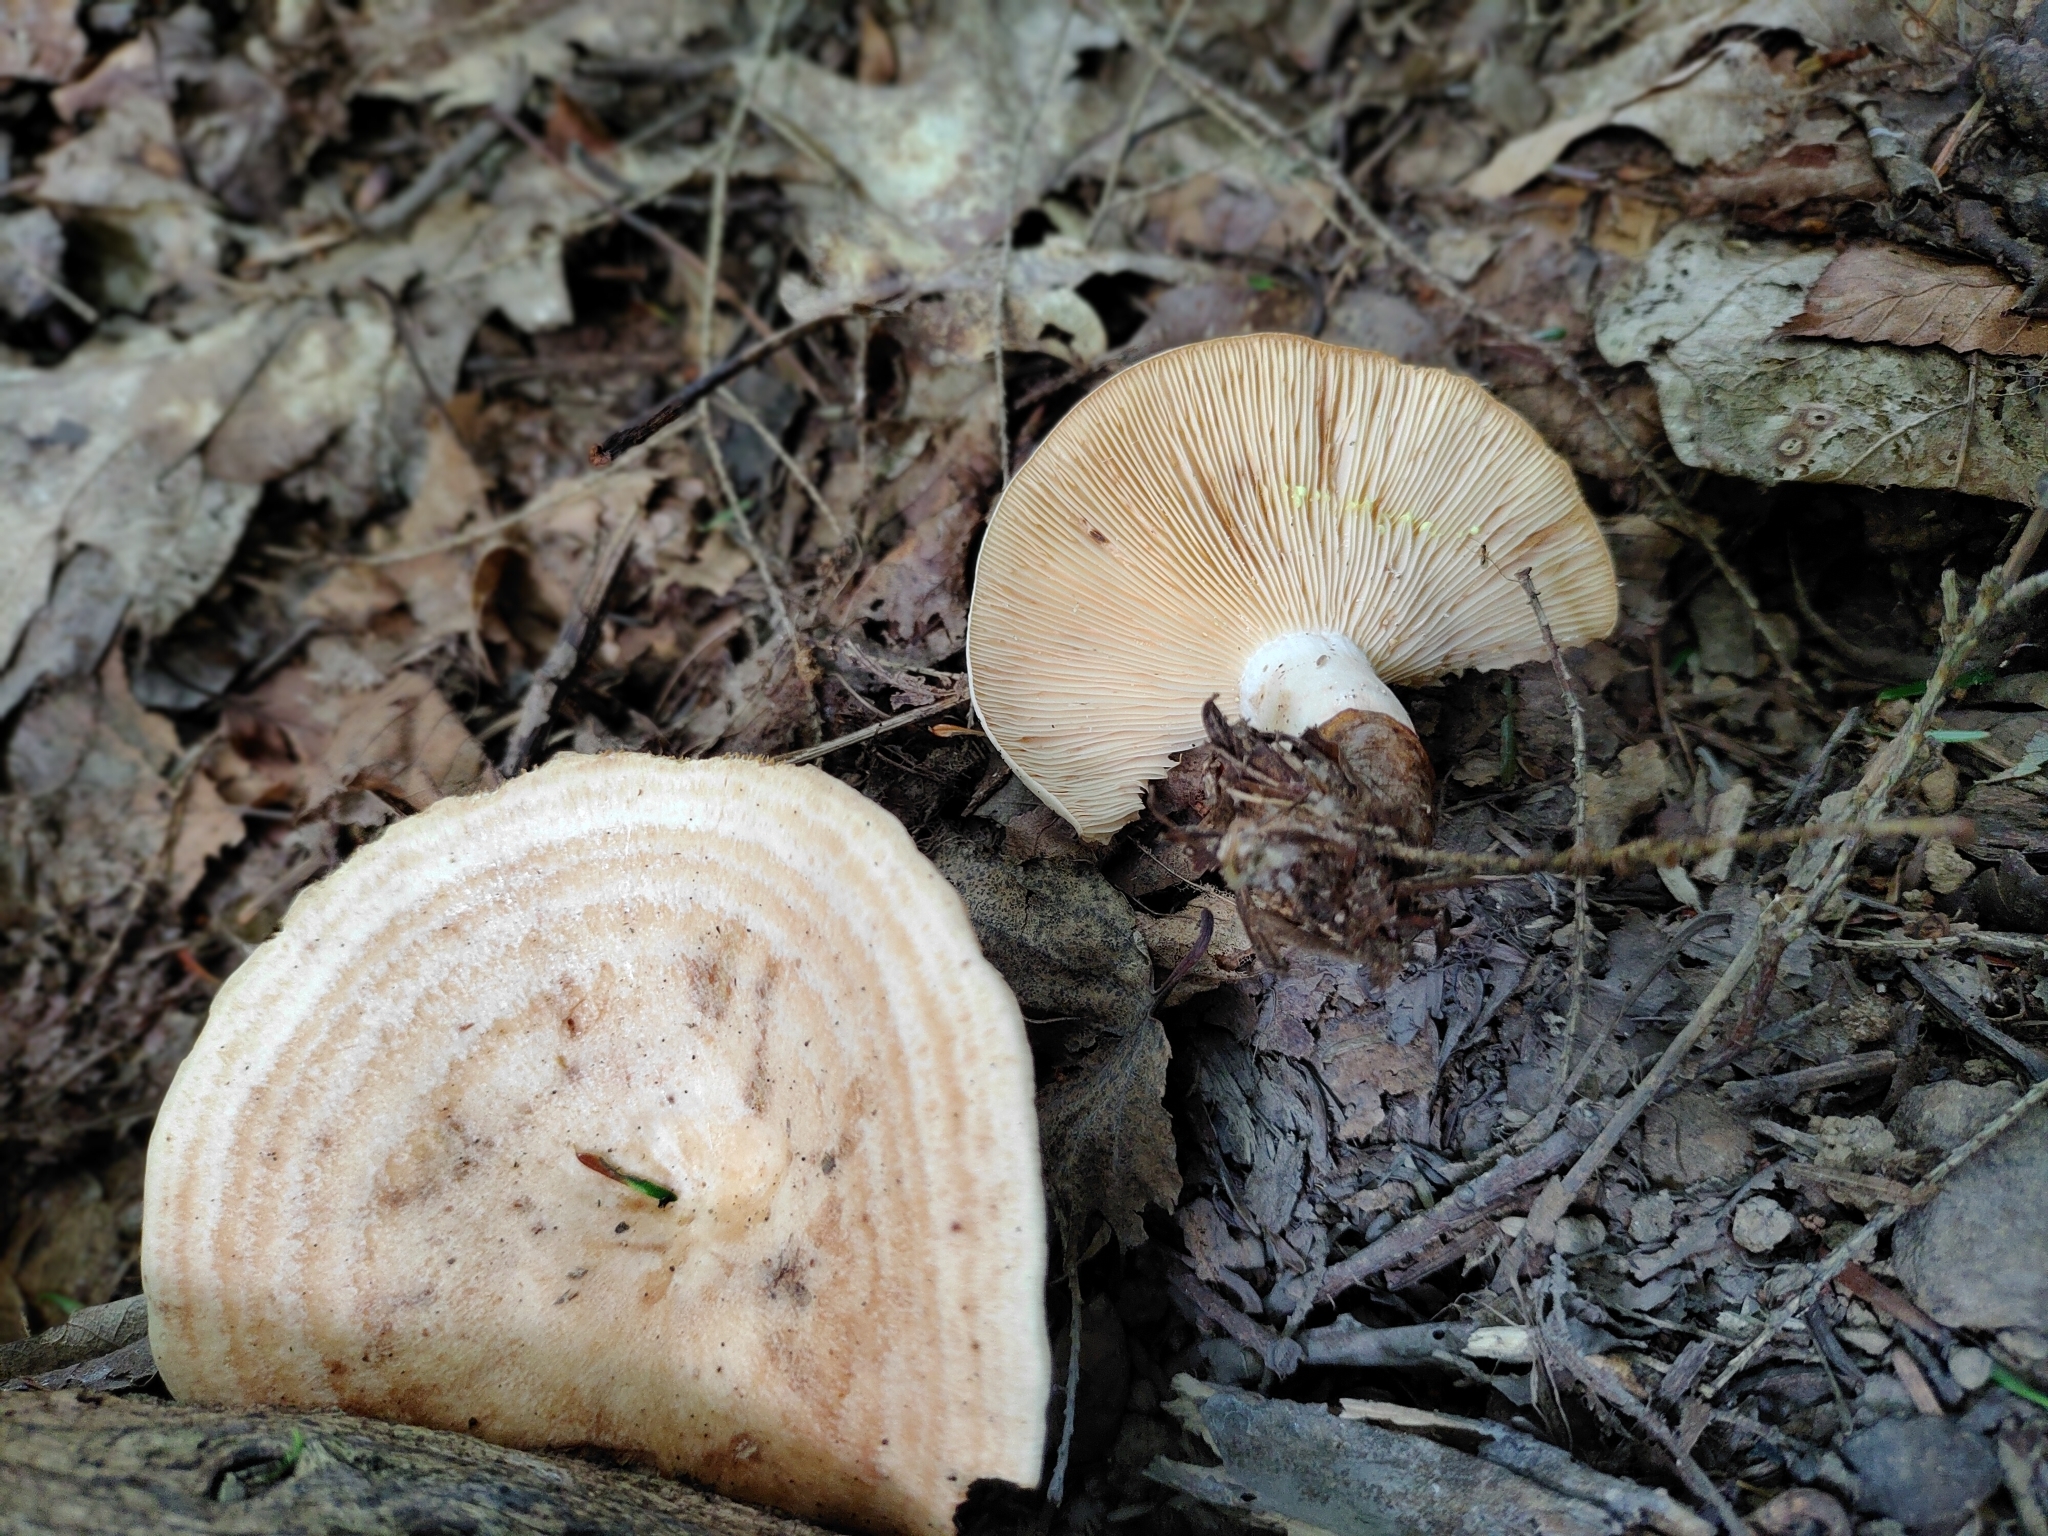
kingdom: Fungi
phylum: Basidiomycota
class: Agaricomycetes
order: Russulales
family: Russulaceae
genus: Lactarius
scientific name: Lactarius chrysorrheus
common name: Yellowdrop milkcap
